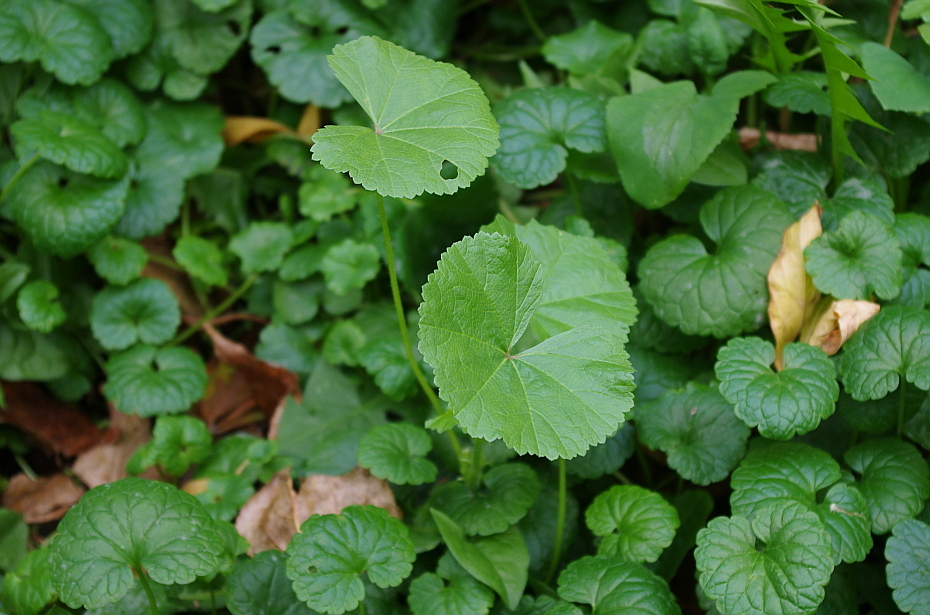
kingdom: Plantae
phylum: Tracheophyta
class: Magnoliopsida
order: Malvales
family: Malvaceae
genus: Malva
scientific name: Malva pusilla
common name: Small mallow
